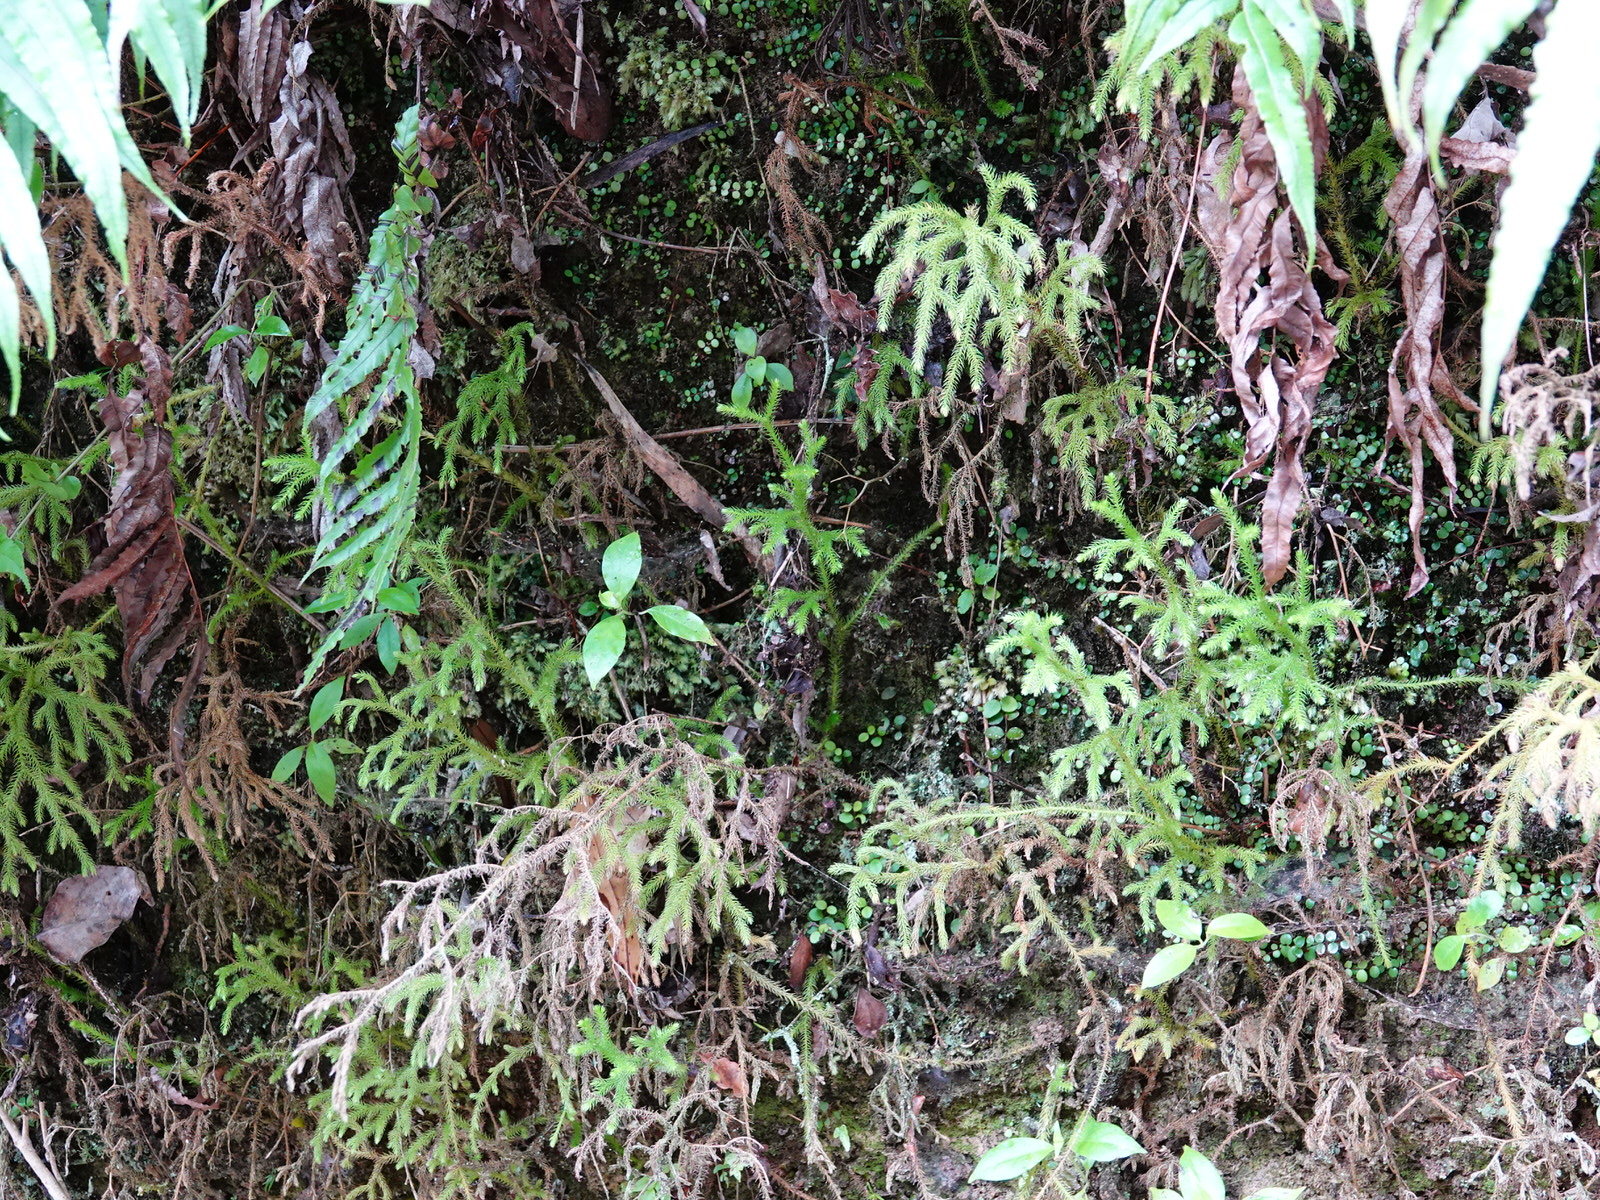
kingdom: Plantae
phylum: Tracheophyta
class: Lycopodiopsida
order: Lycopodiales
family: Lycopodiaceae
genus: Palhinhaea
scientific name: Palhinhaea cernua
